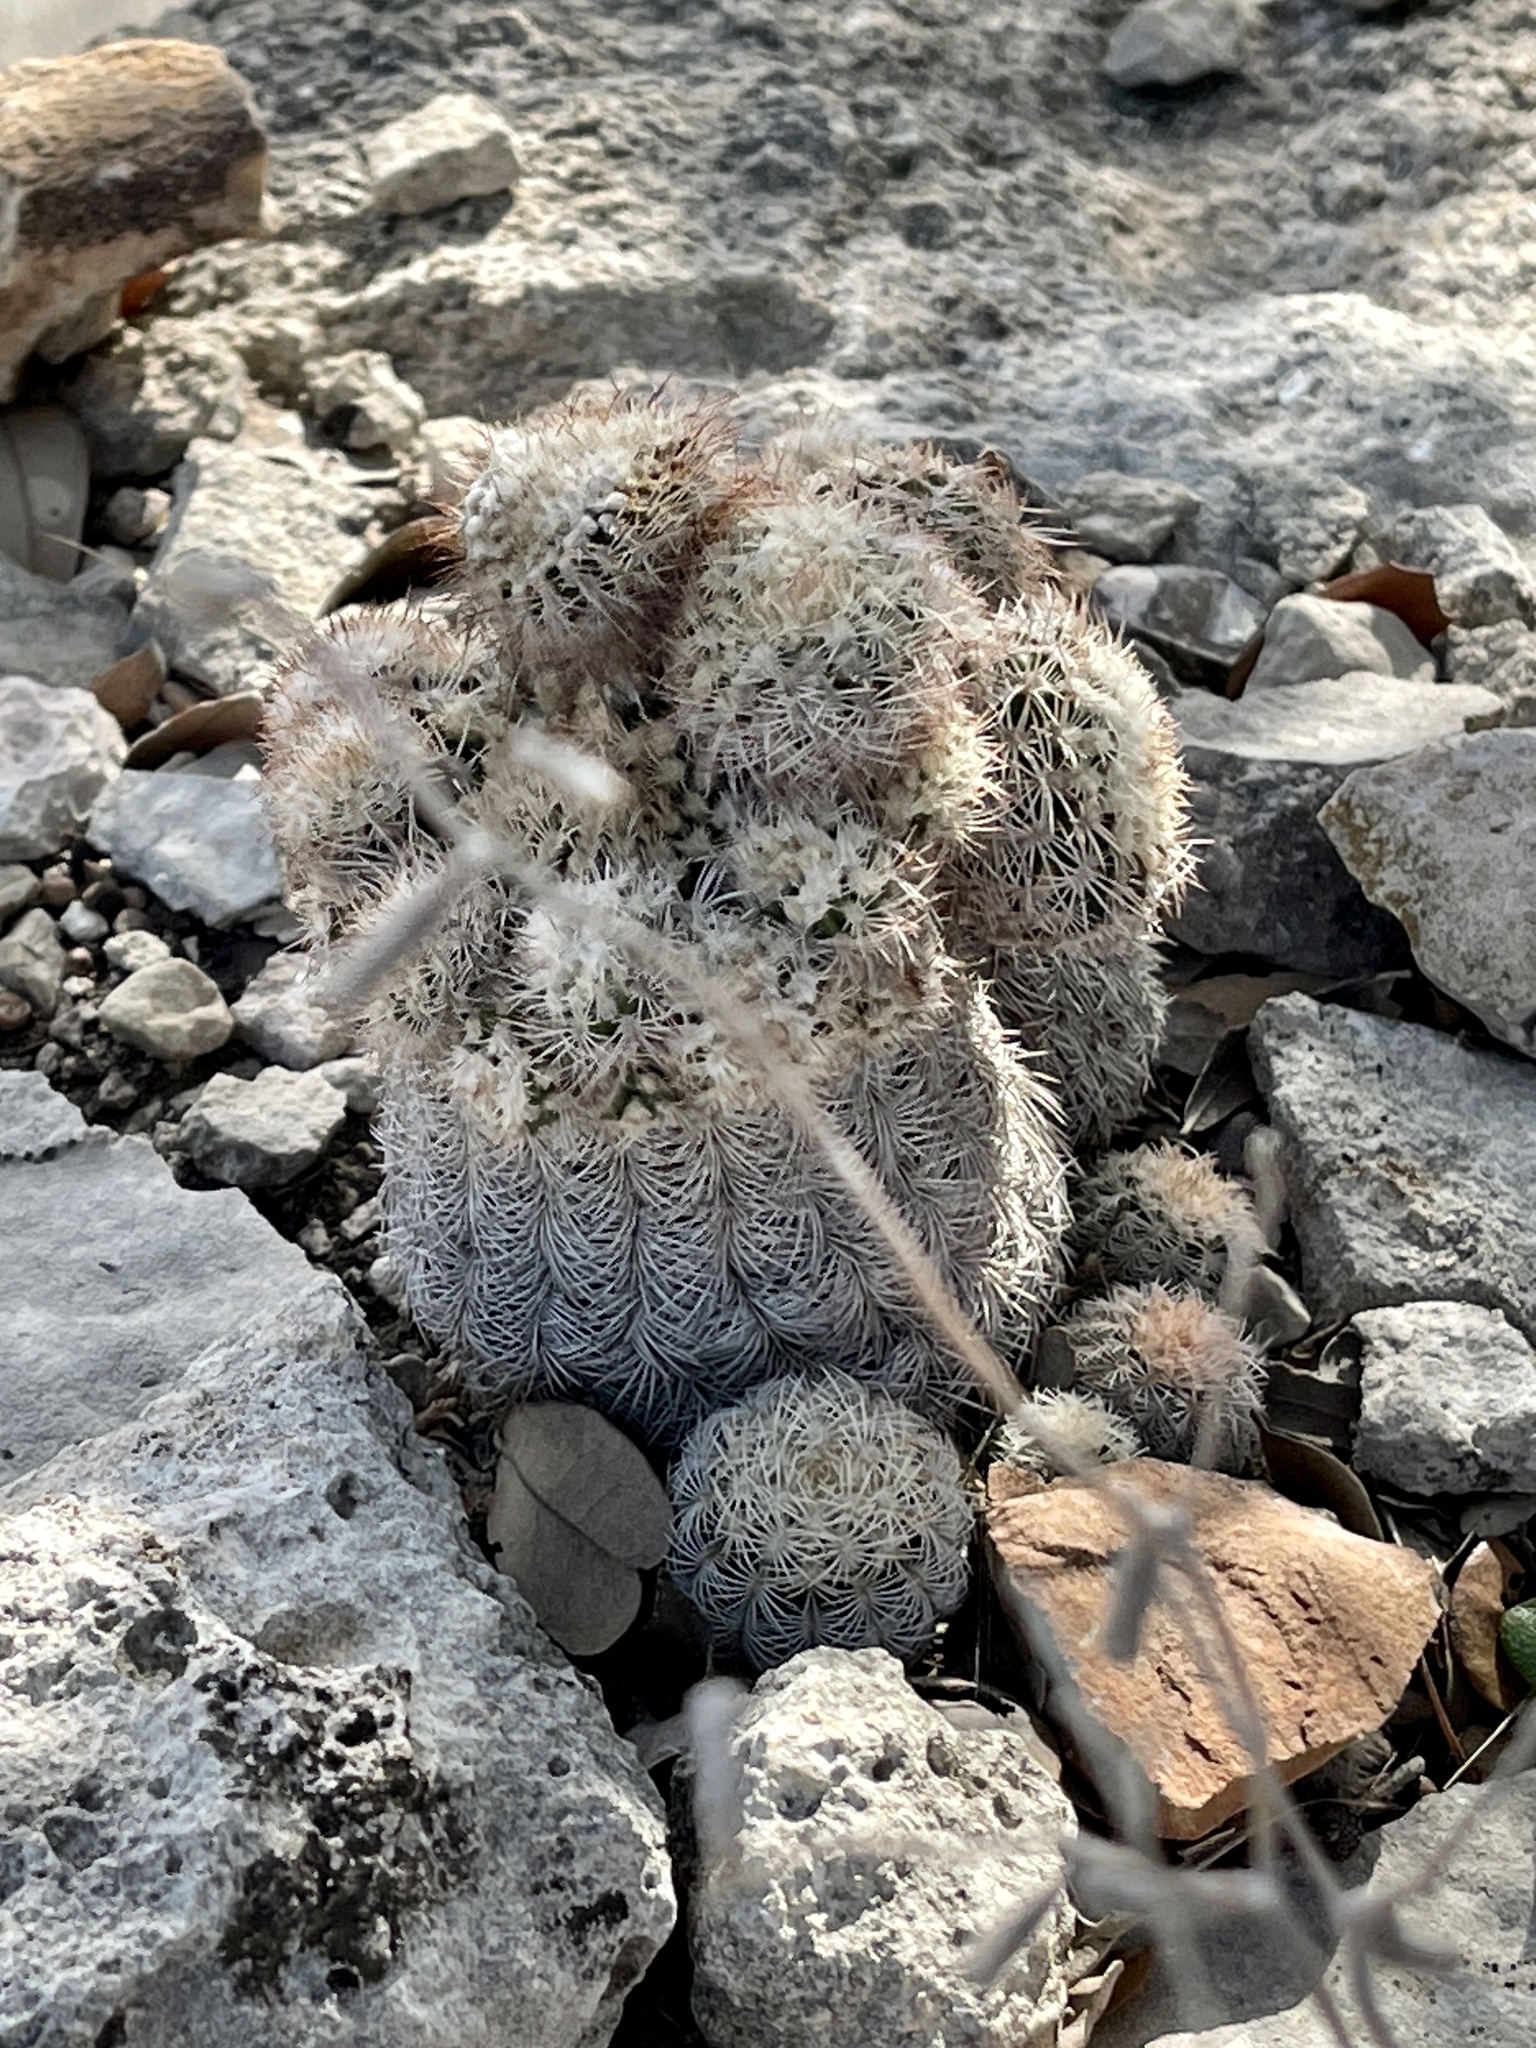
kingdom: Plantae
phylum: Tracheophyta
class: Magnoliopsida
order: Caryophyllales
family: Cactaceae
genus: Echinocereus
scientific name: Echinocereus reichenbachii
